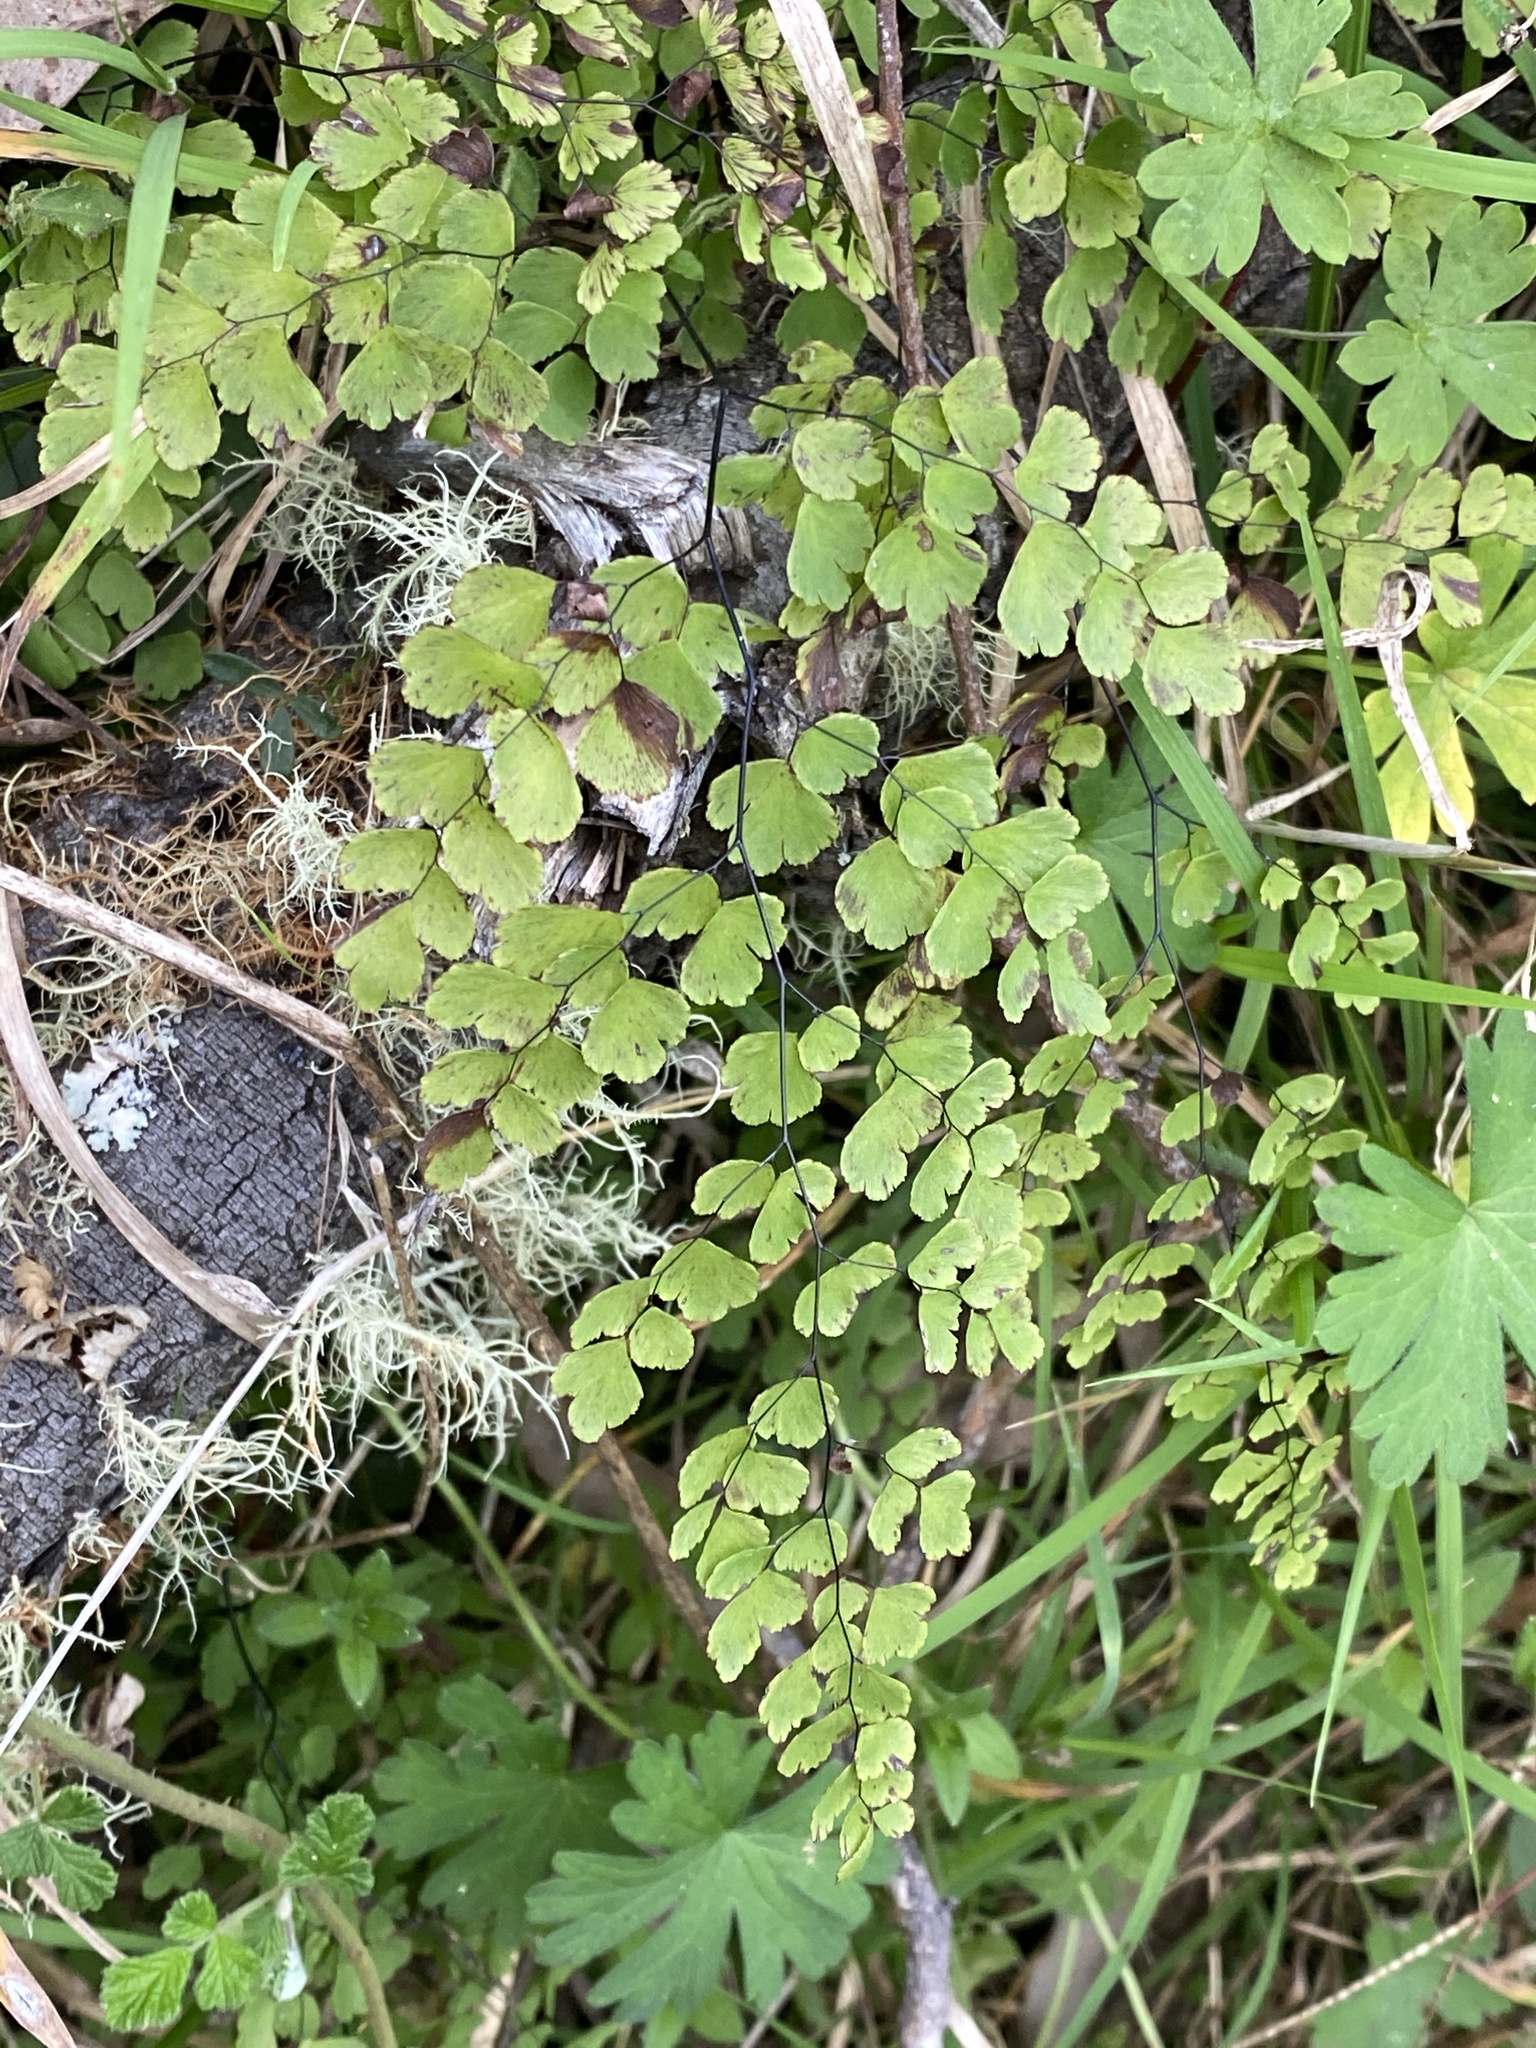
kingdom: Plantae
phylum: Tracheophyta
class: Polypodiopsida
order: Polypodiales
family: Pteridaceae
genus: Adiantum
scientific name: Adiantum atroviride
